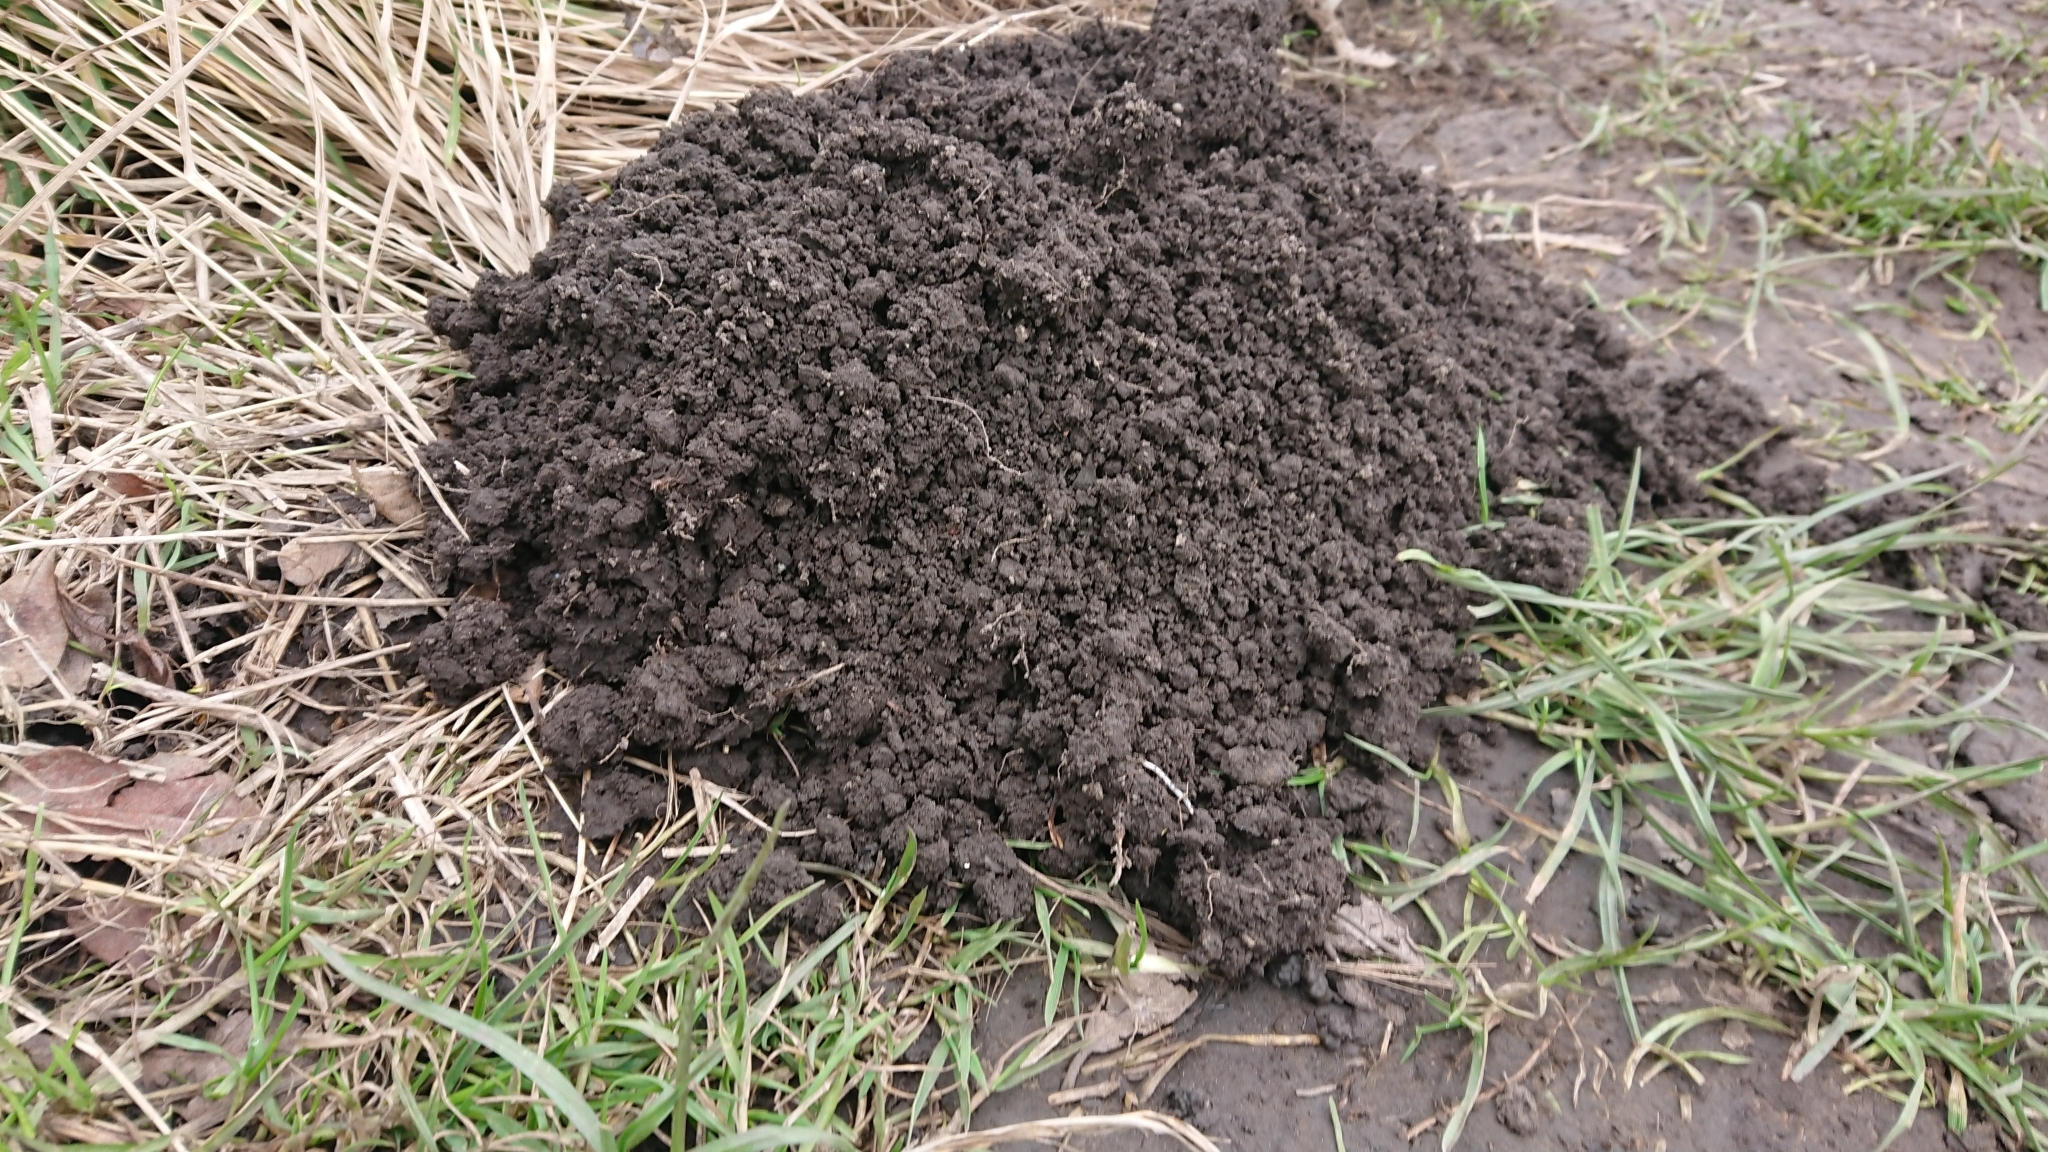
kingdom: Animalia
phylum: Chordata
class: Mammalia
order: Soricomorpha
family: Talpidae
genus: Talpa
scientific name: Talpa europaea
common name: European mole
